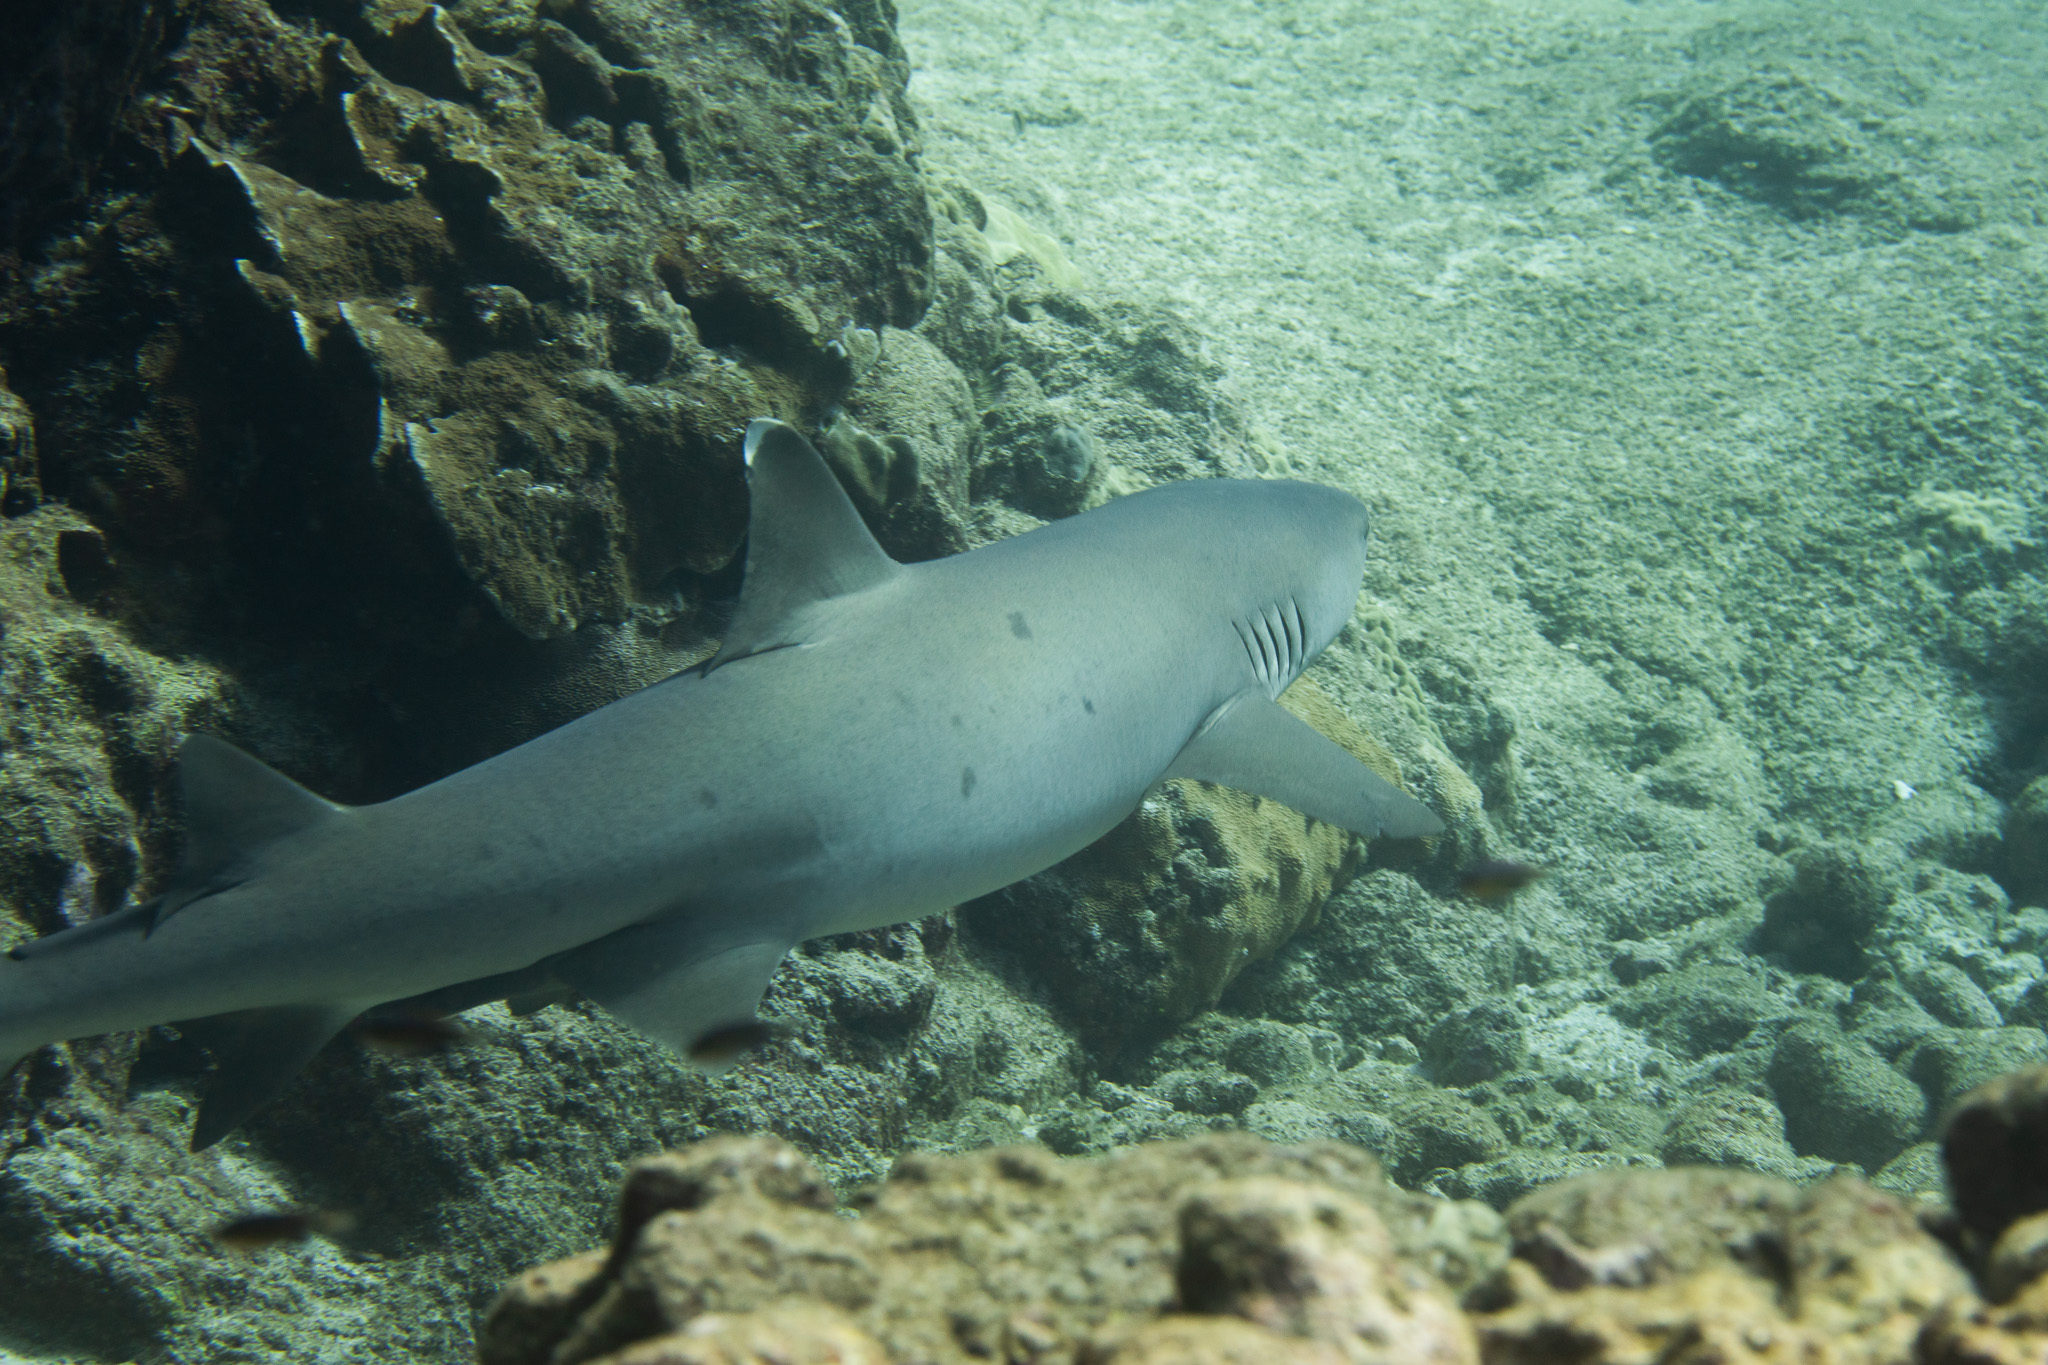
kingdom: Animalia
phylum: Chordata
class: Elasmobranchii
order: Carcharhiniformes
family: Carcharhinidae
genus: Triaenodon
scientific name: Triaenodon obesus
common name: Whitetip reef shark
